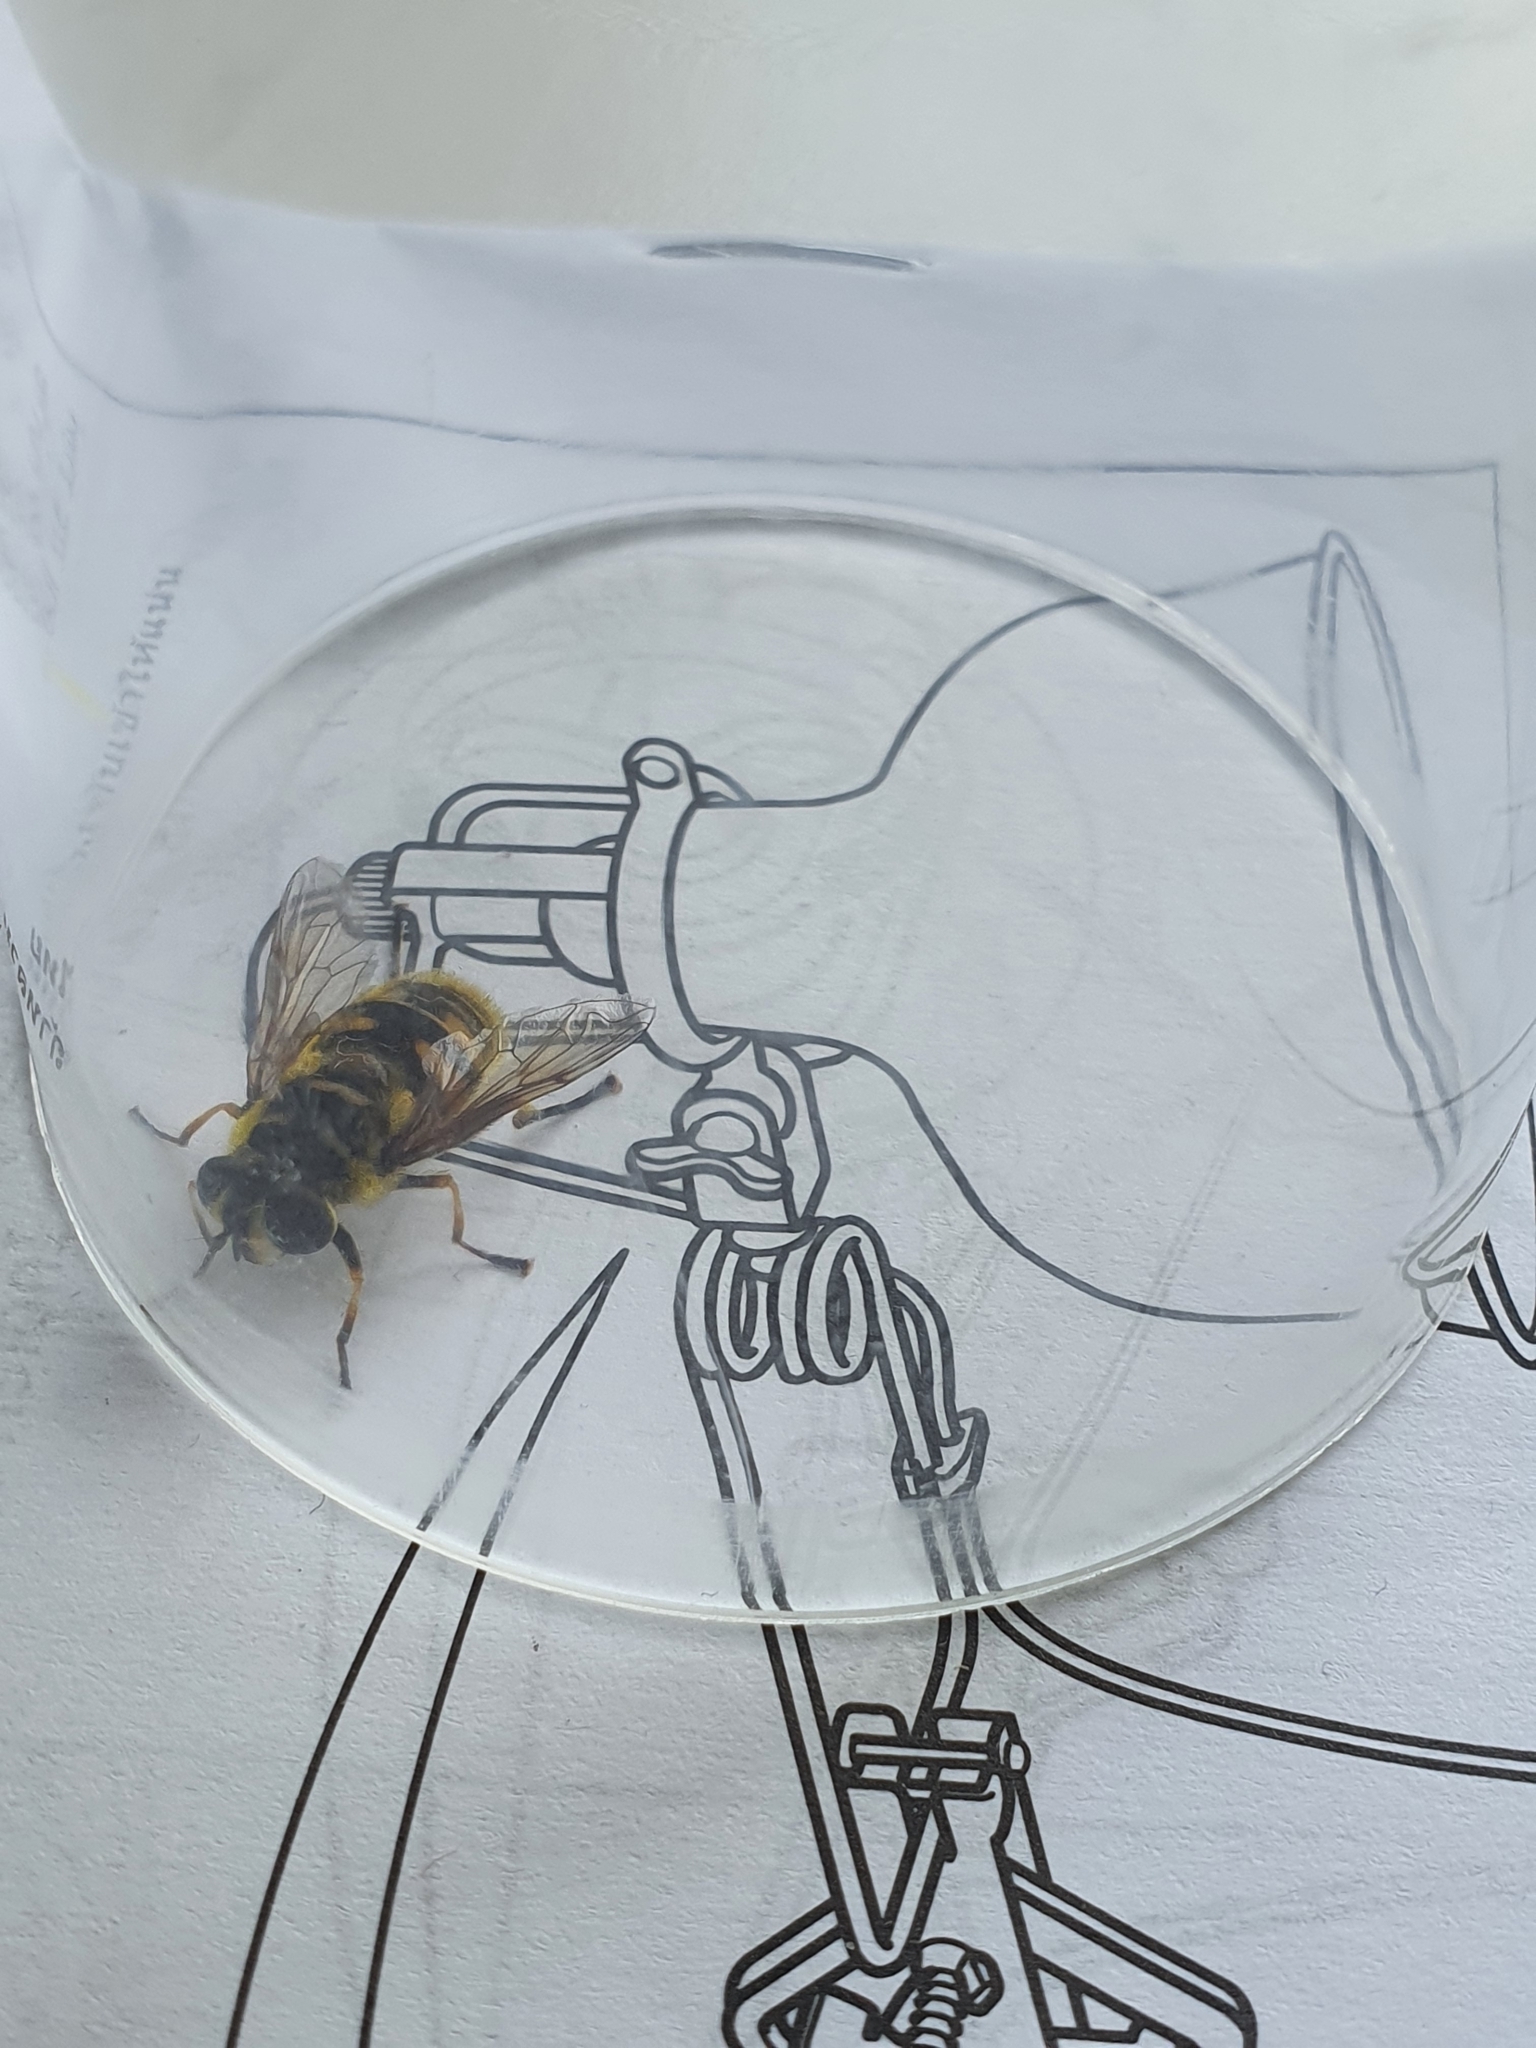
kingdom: Animalia
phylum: Arthropoda
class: Insecta
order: Diptera
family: Syrphidae
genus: Myathropa
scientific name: Myathropa florea
